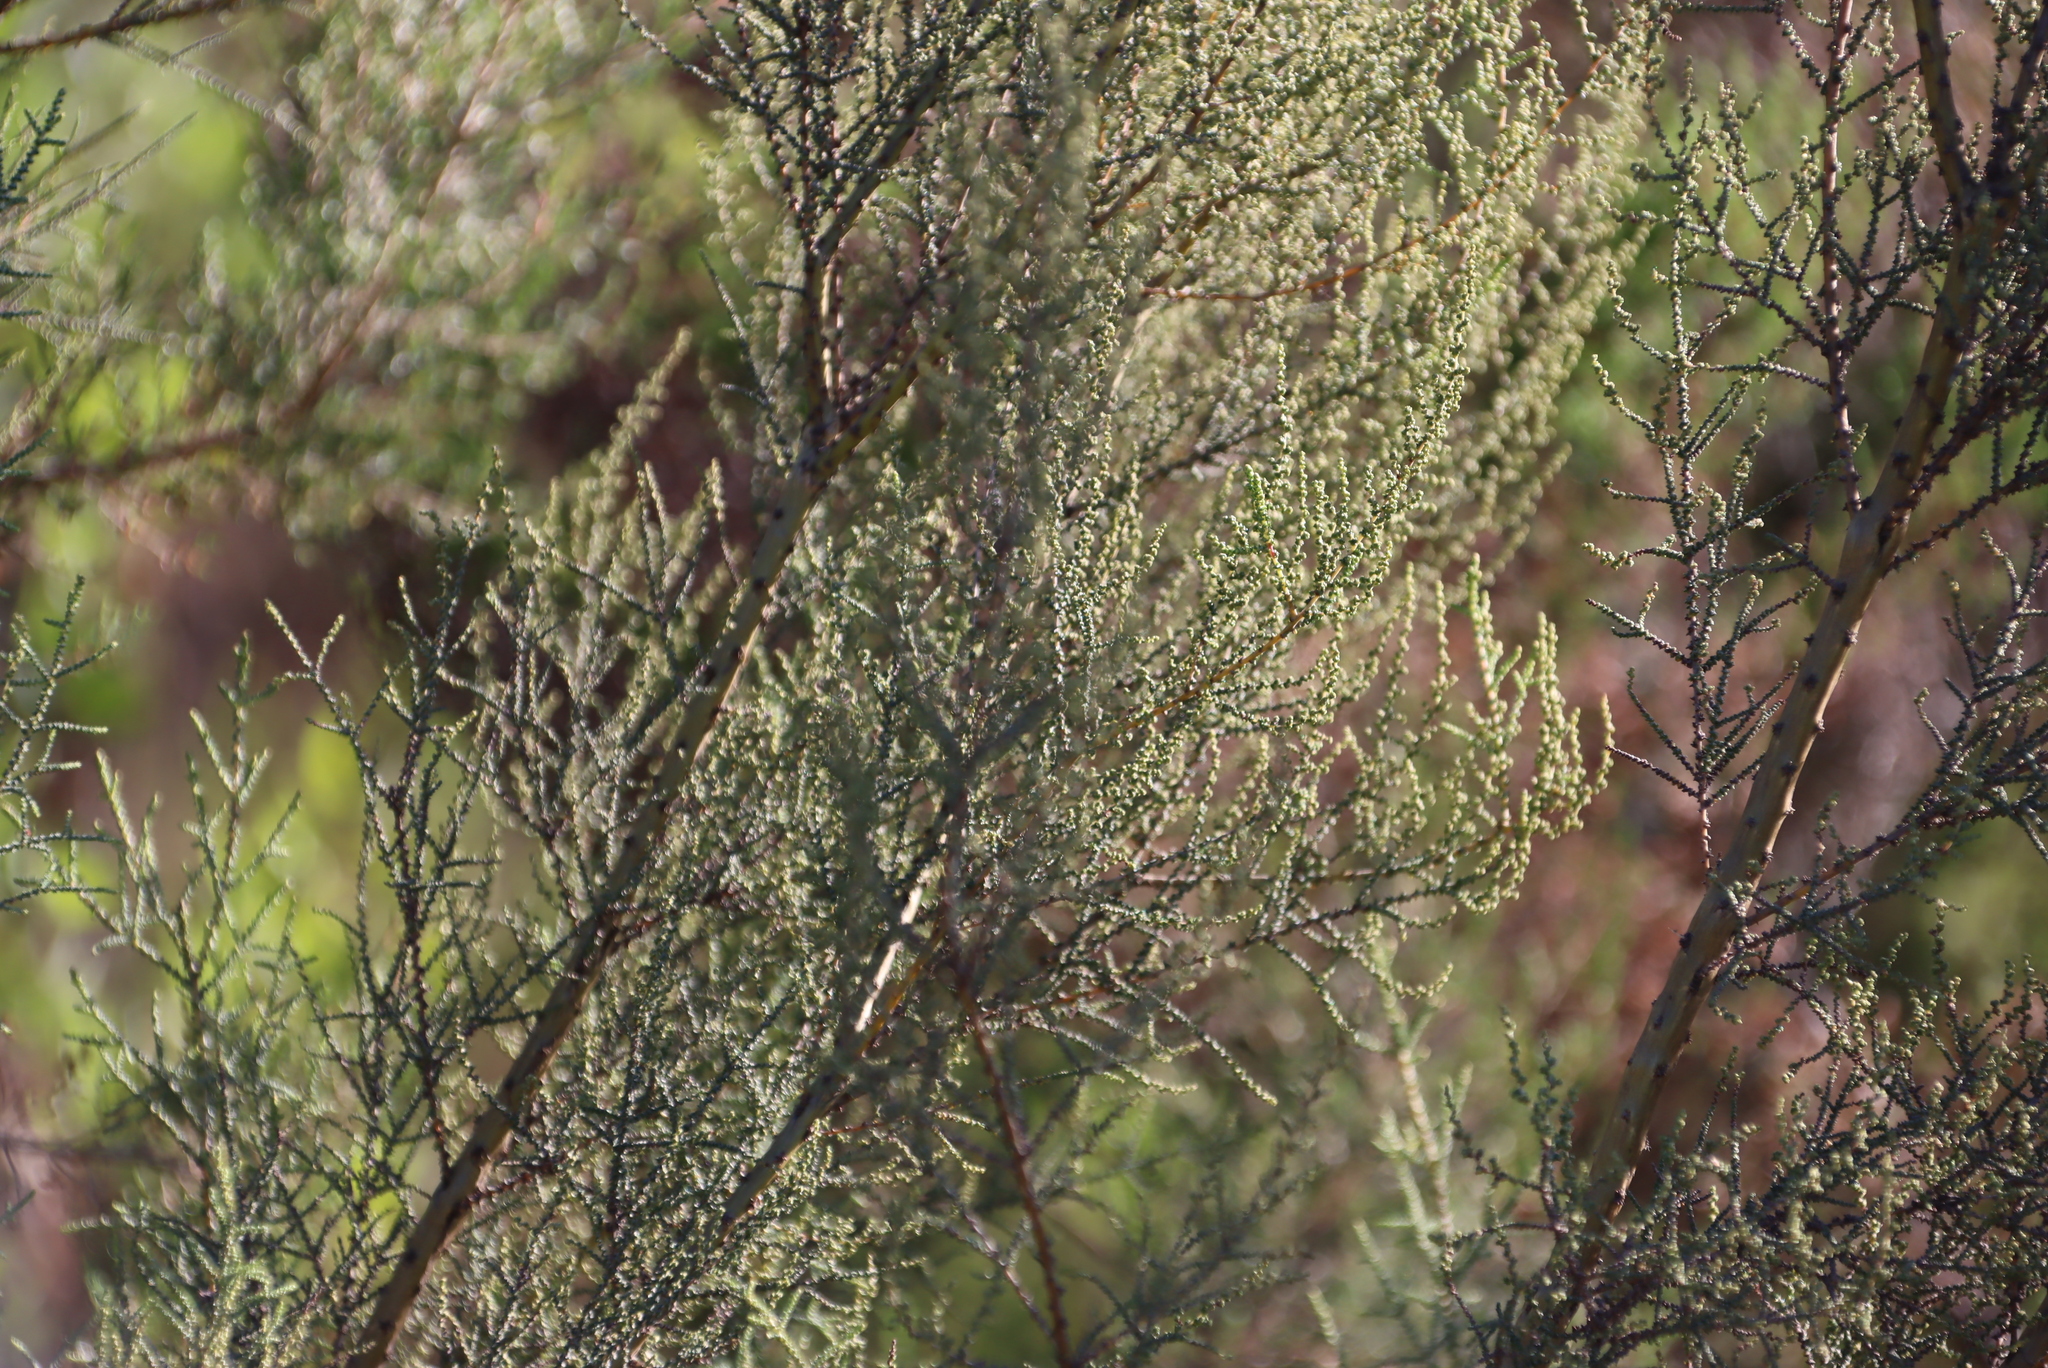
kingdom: Plantae
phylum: Tracheophyta
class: Magnoliopsida
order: Asterales
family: Asteraceae
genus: Seriphium
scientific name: Seriphium plumosum
